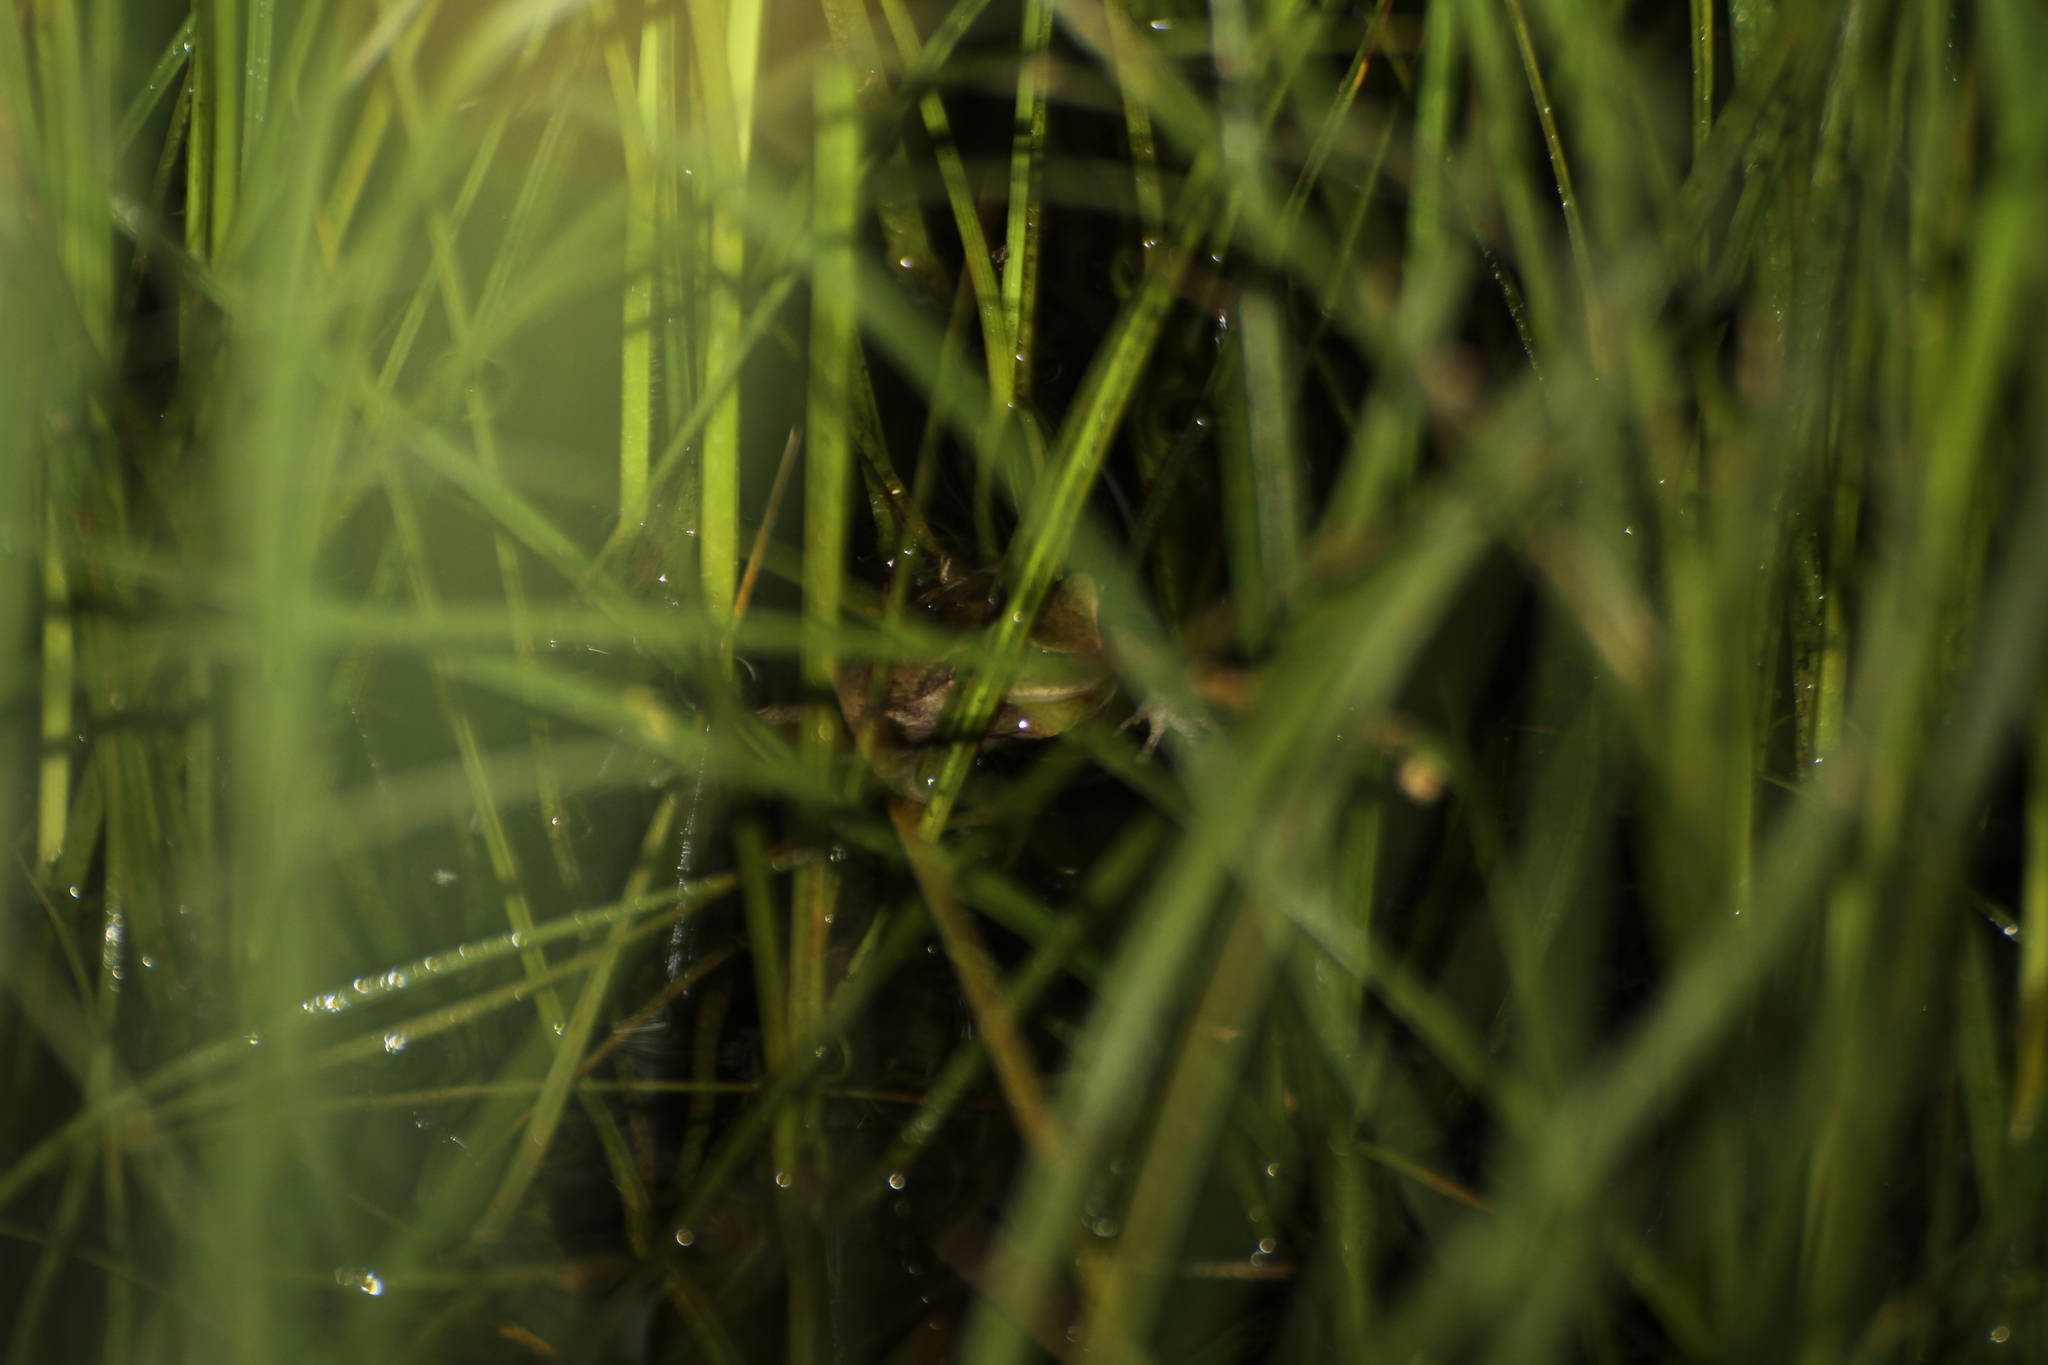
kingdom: Animalia
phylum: Chordata
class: Amphibia
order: Anura
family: Hylidae
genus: Hyla
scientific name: Hyla meridionalis
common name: Stripeless tree frog
